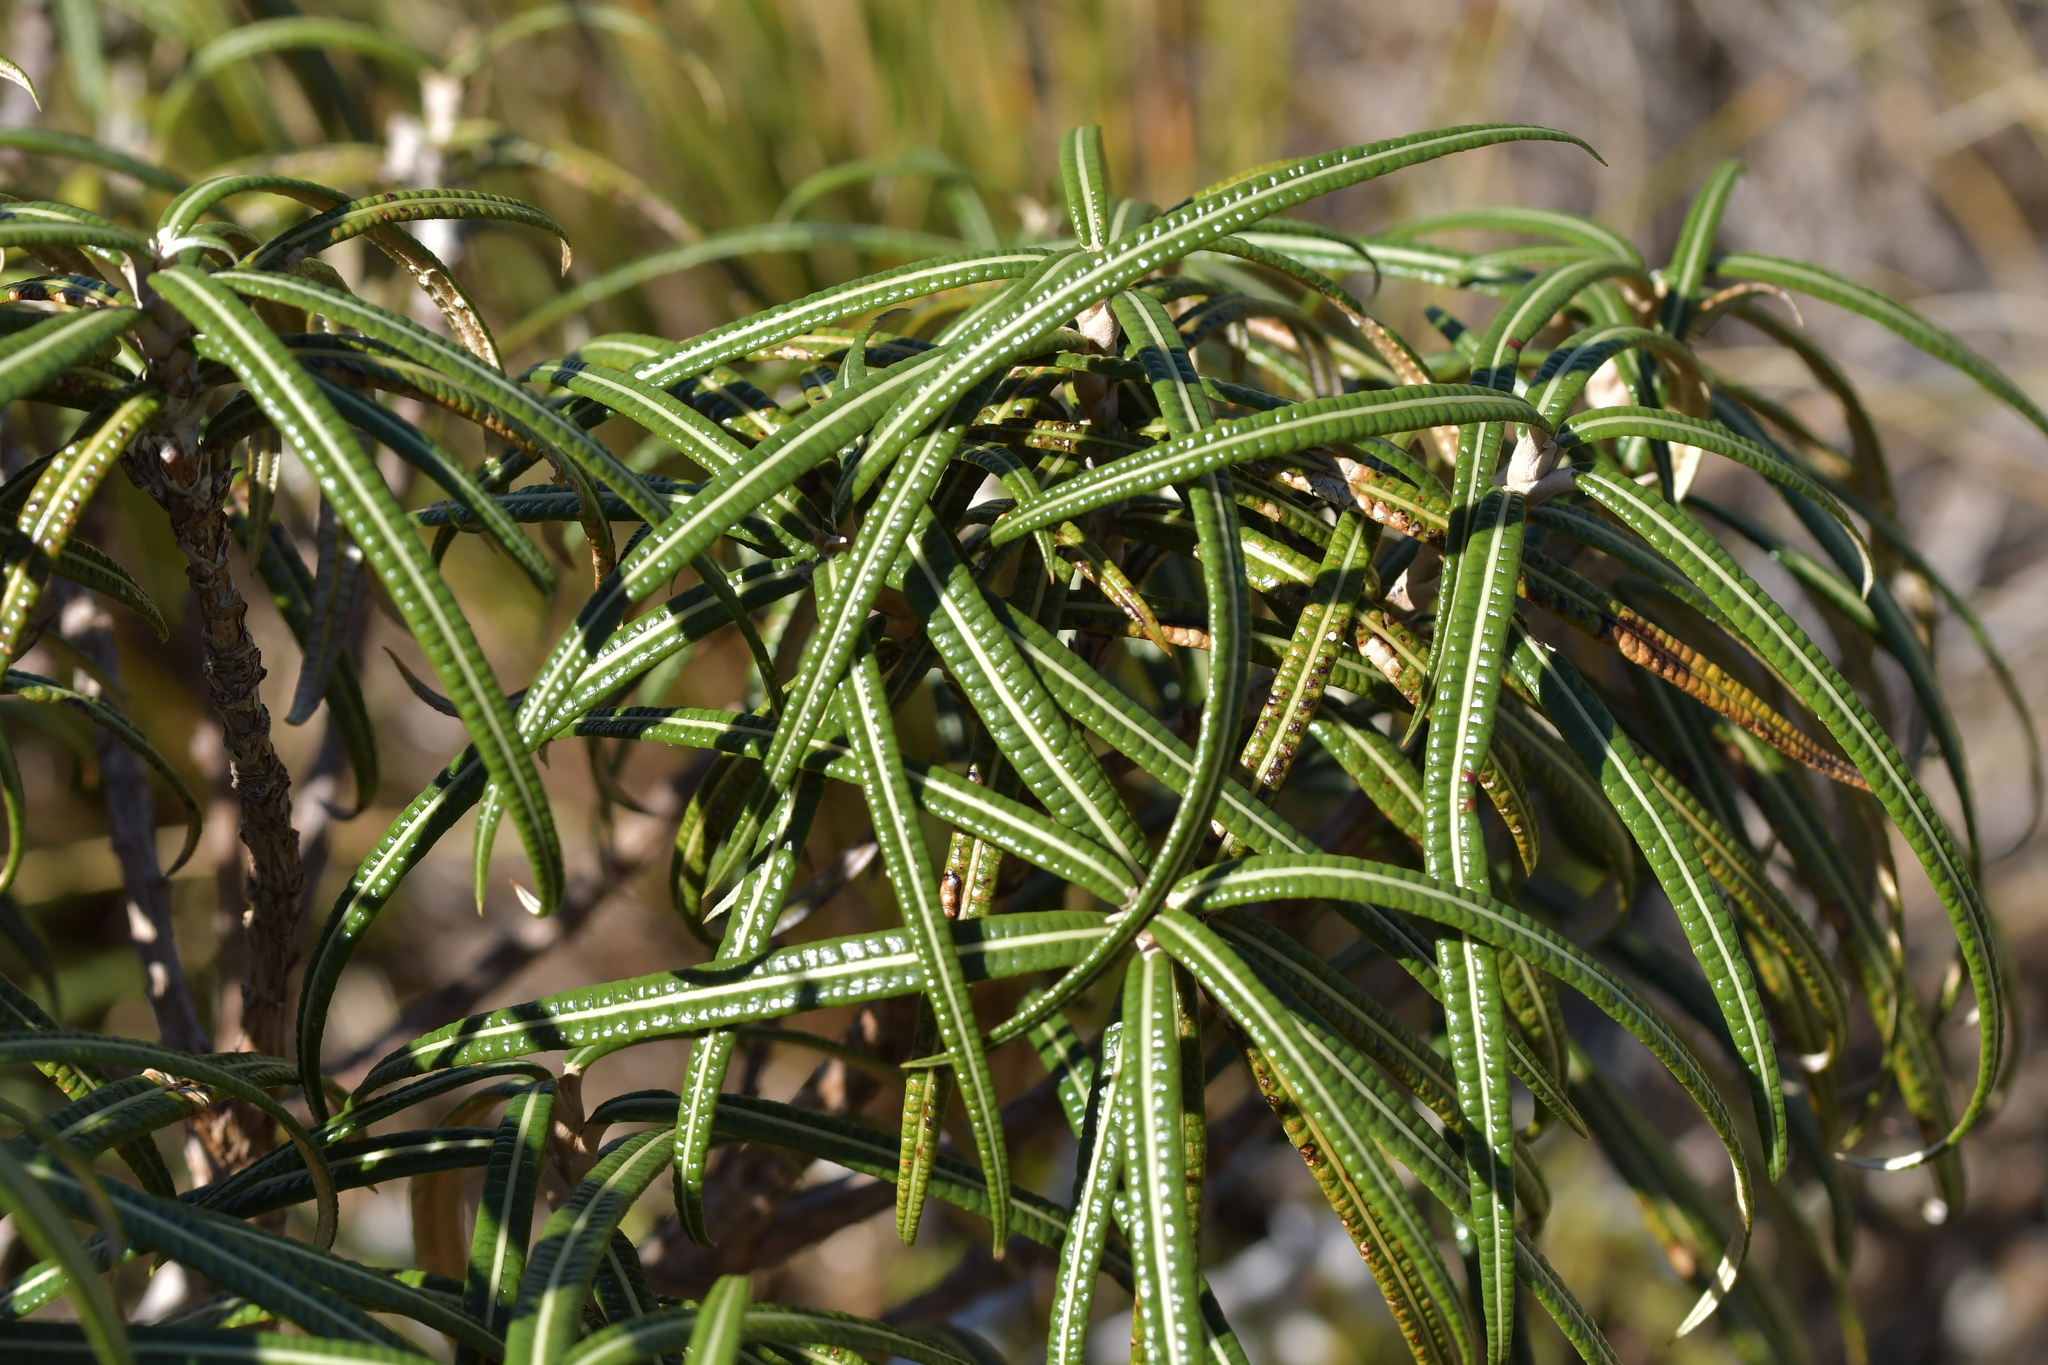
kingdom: Plantae
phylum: Tracheophyta
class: Magnoliopsida
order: Asterales
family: Asteraceae
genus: Olearia
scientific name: Olearia lacunosa
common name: Lancewood tree daisy
